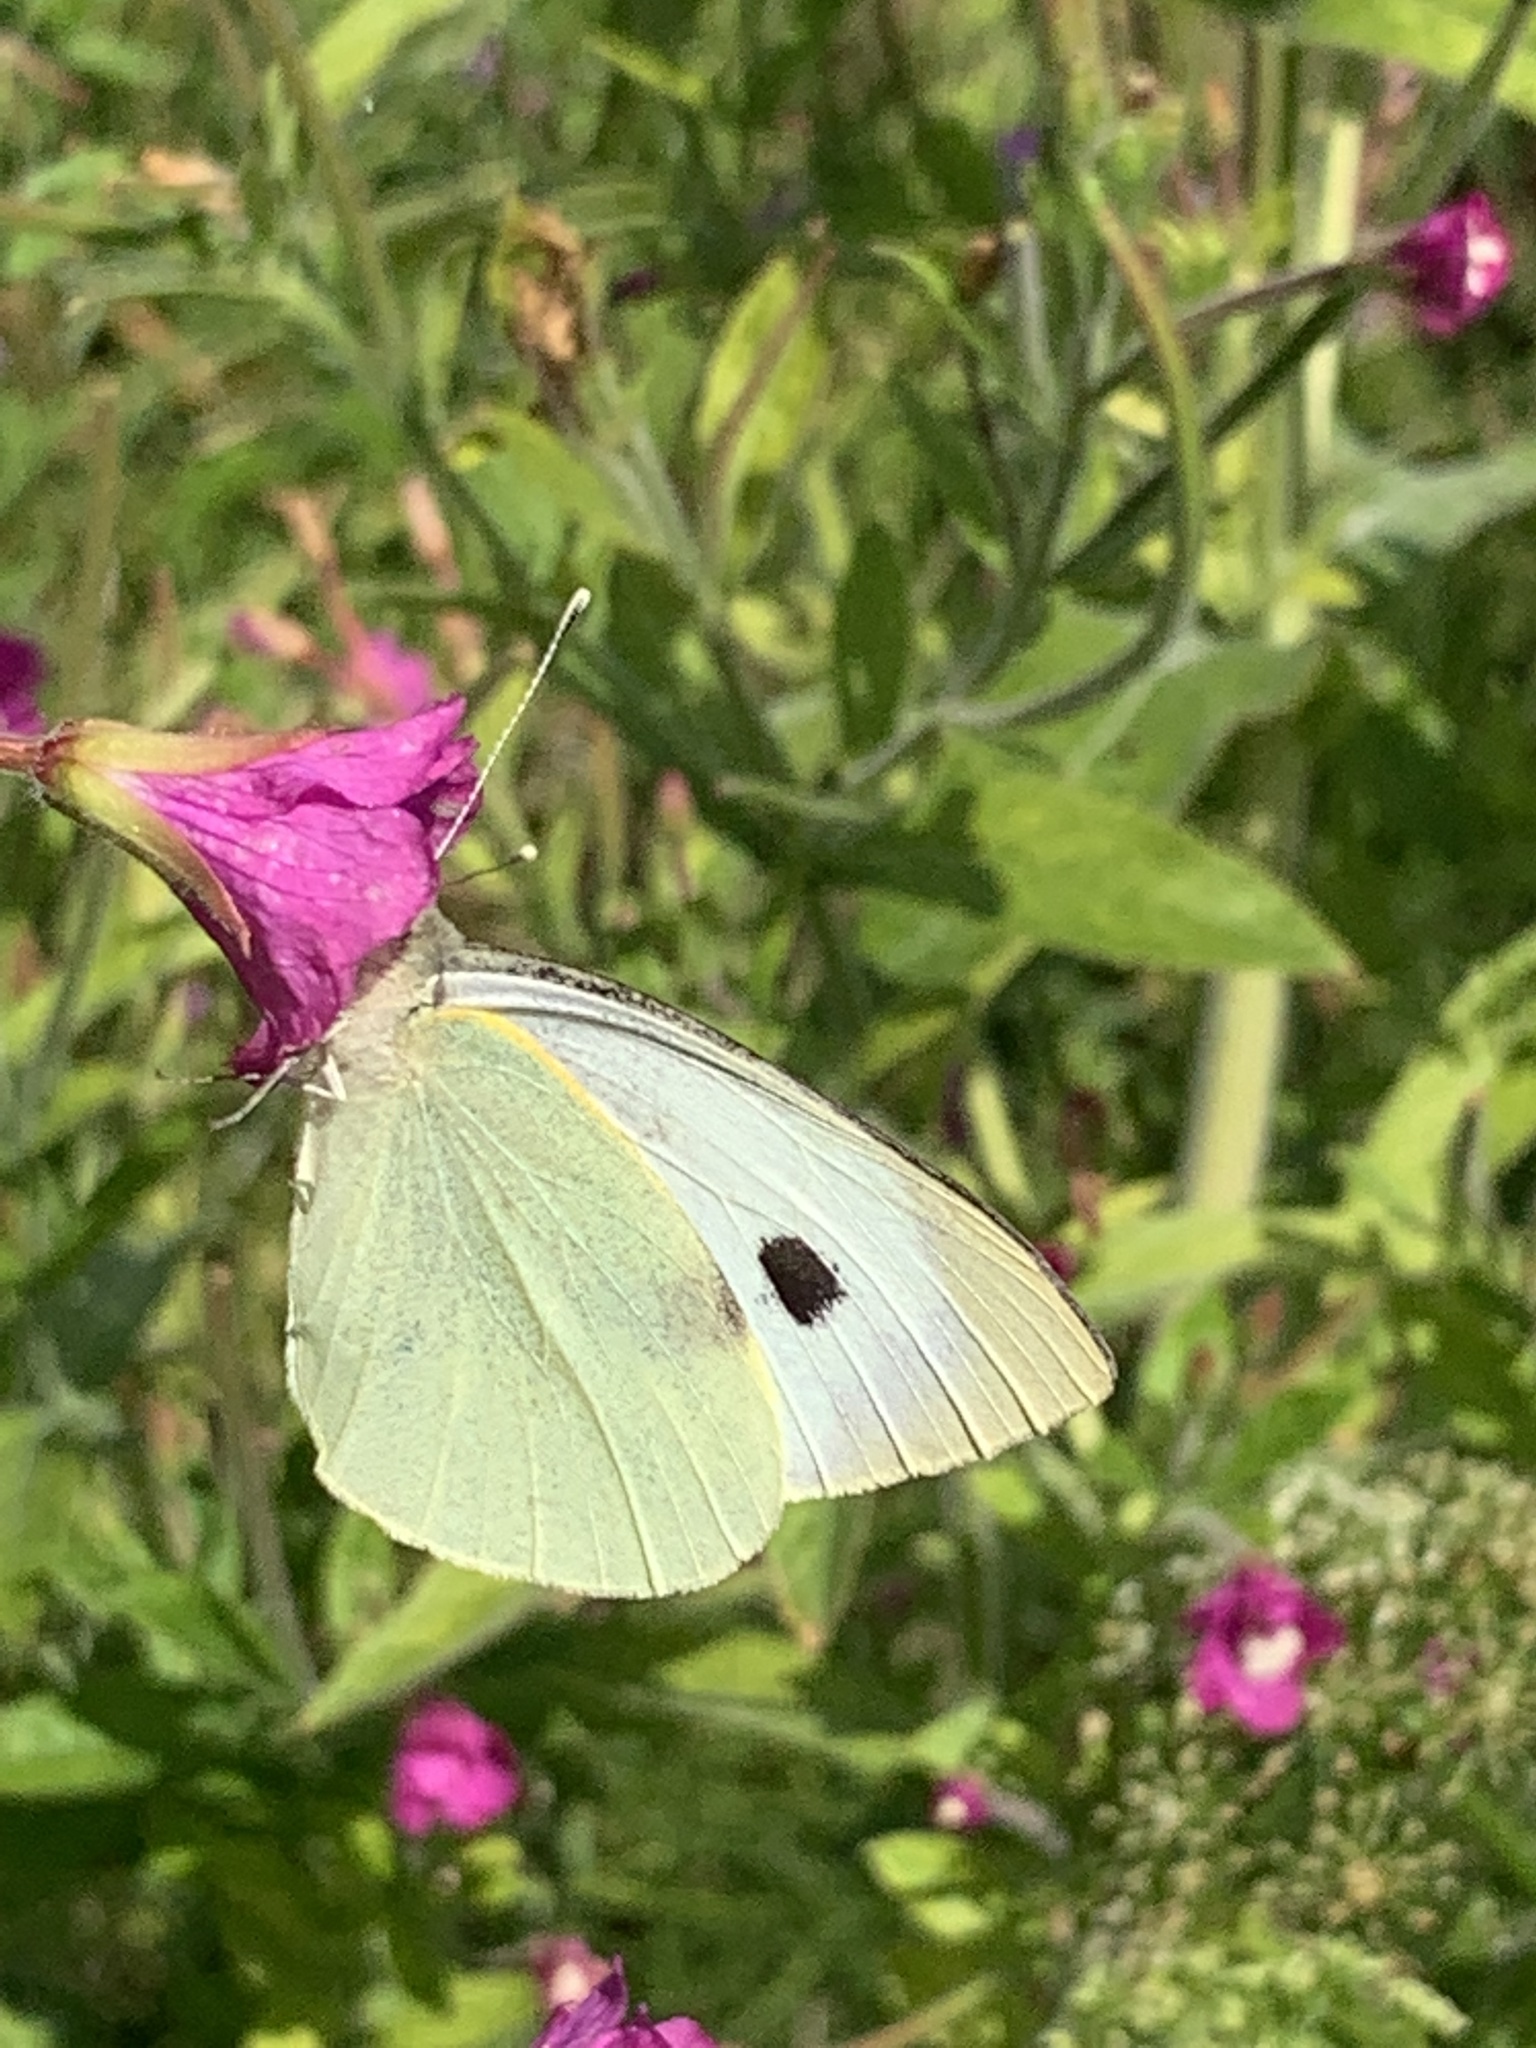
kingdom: Animalia
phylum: Arthropoda
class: Insecta
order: Lepidoptera
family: Pieridae
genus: Pieris
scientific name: Pieris brassicae
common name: Large white
